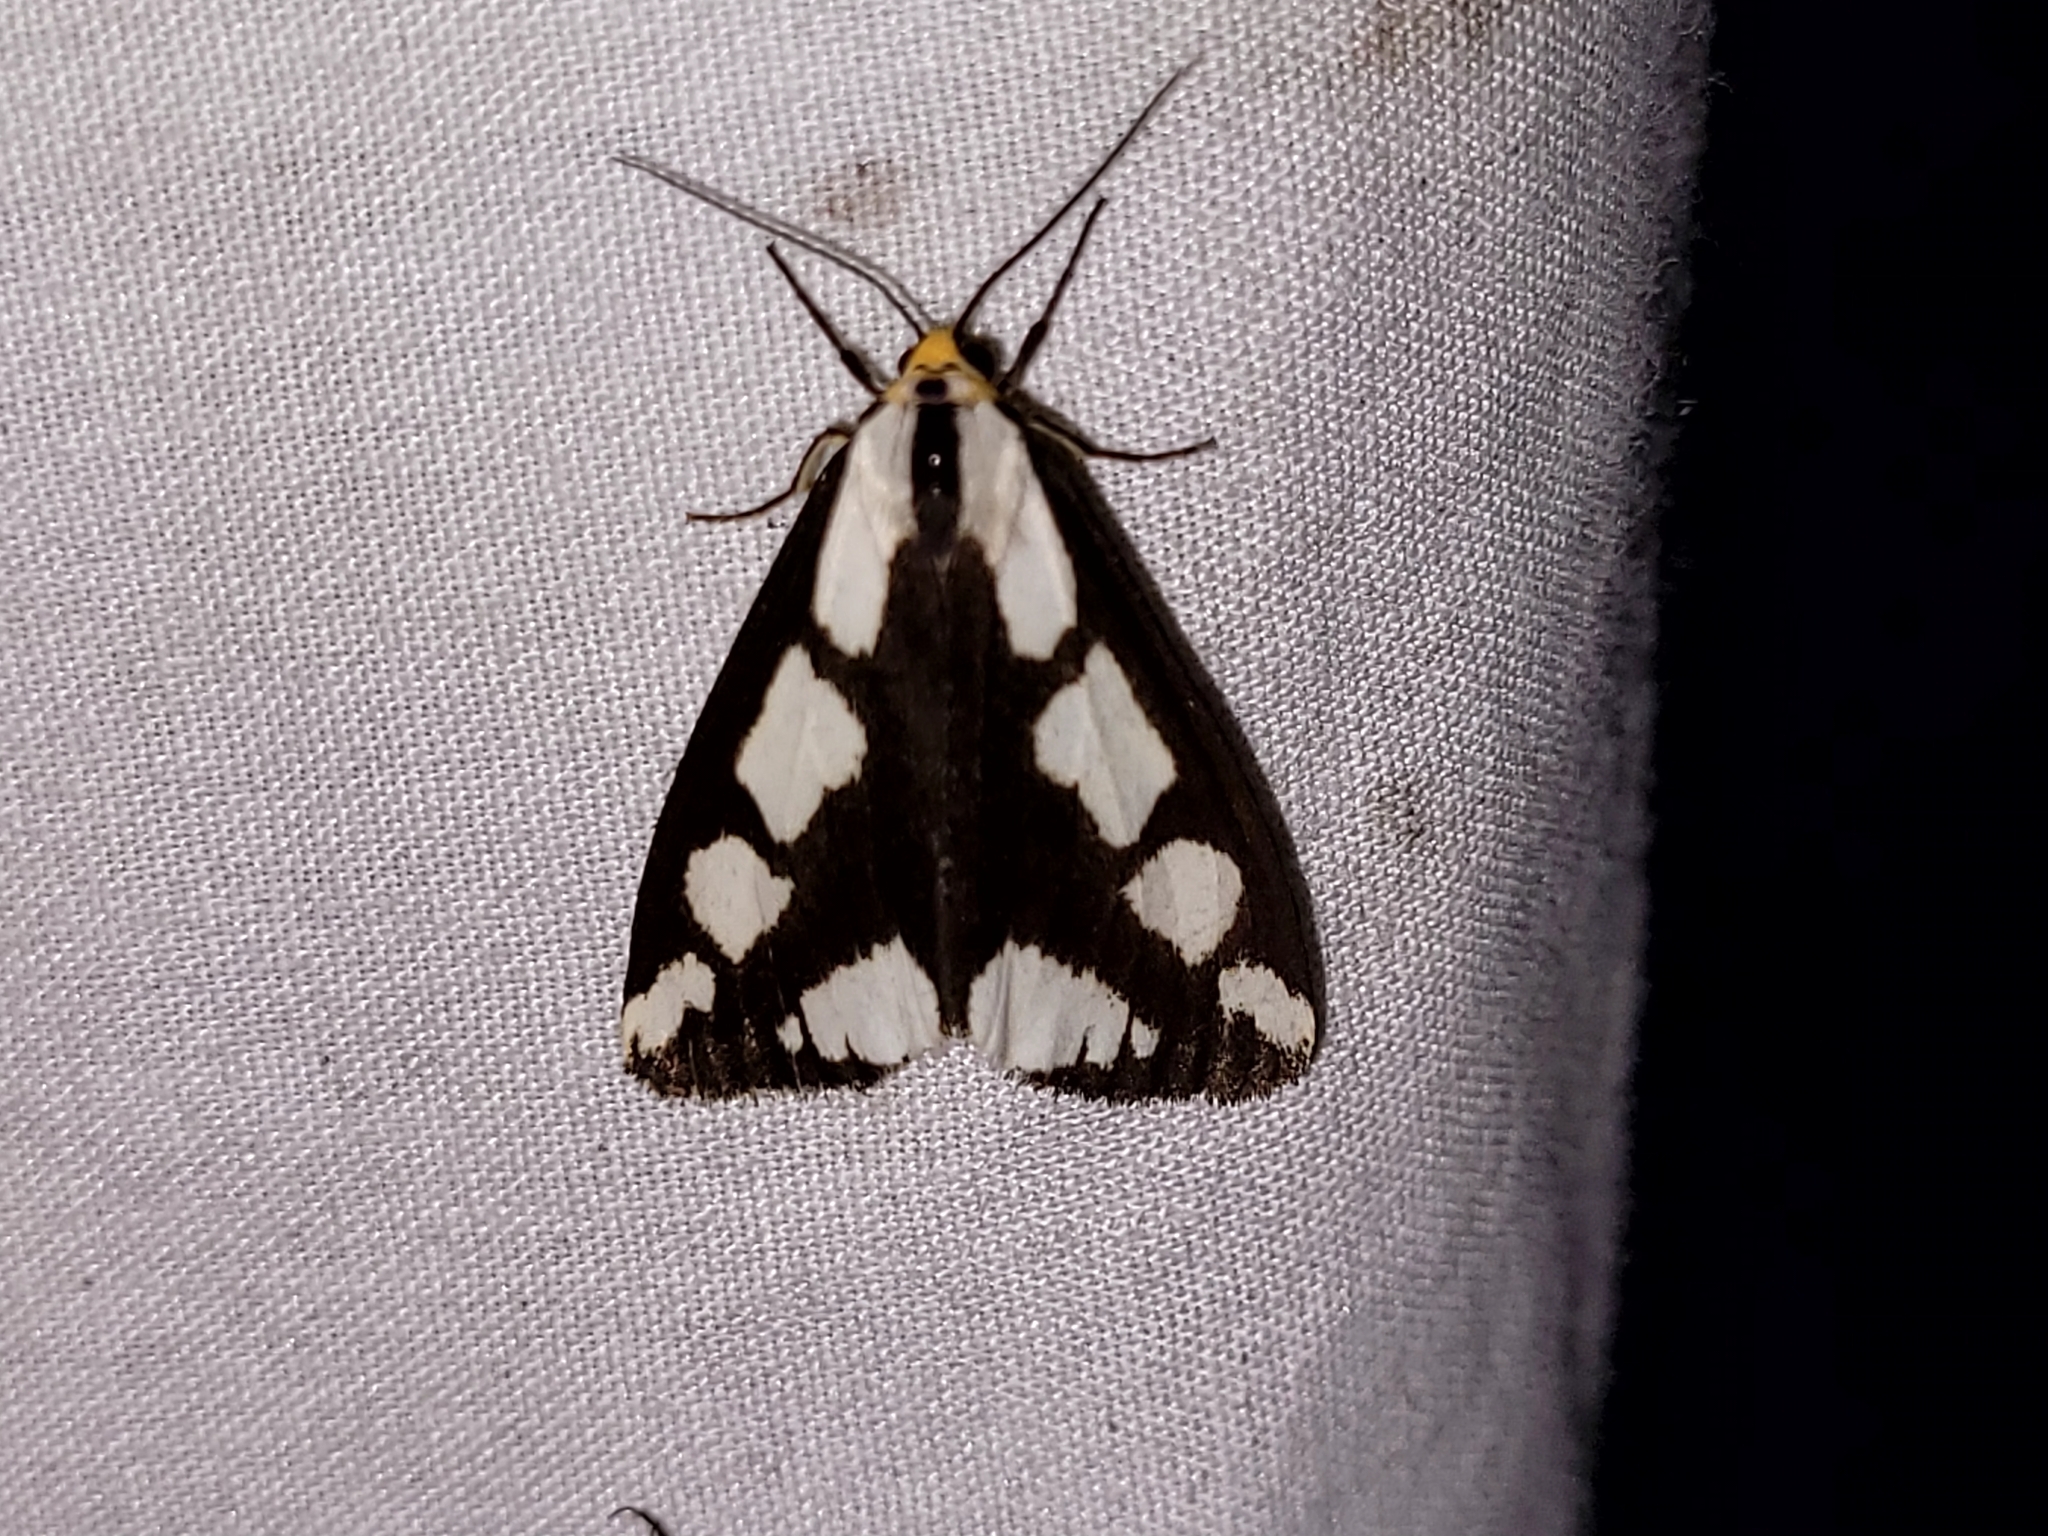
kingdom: Animalia
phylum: Arthropoda
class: Insecta
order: Lepidoptera
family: Erebidae
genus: Haploa
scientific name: Haploa lecontei
